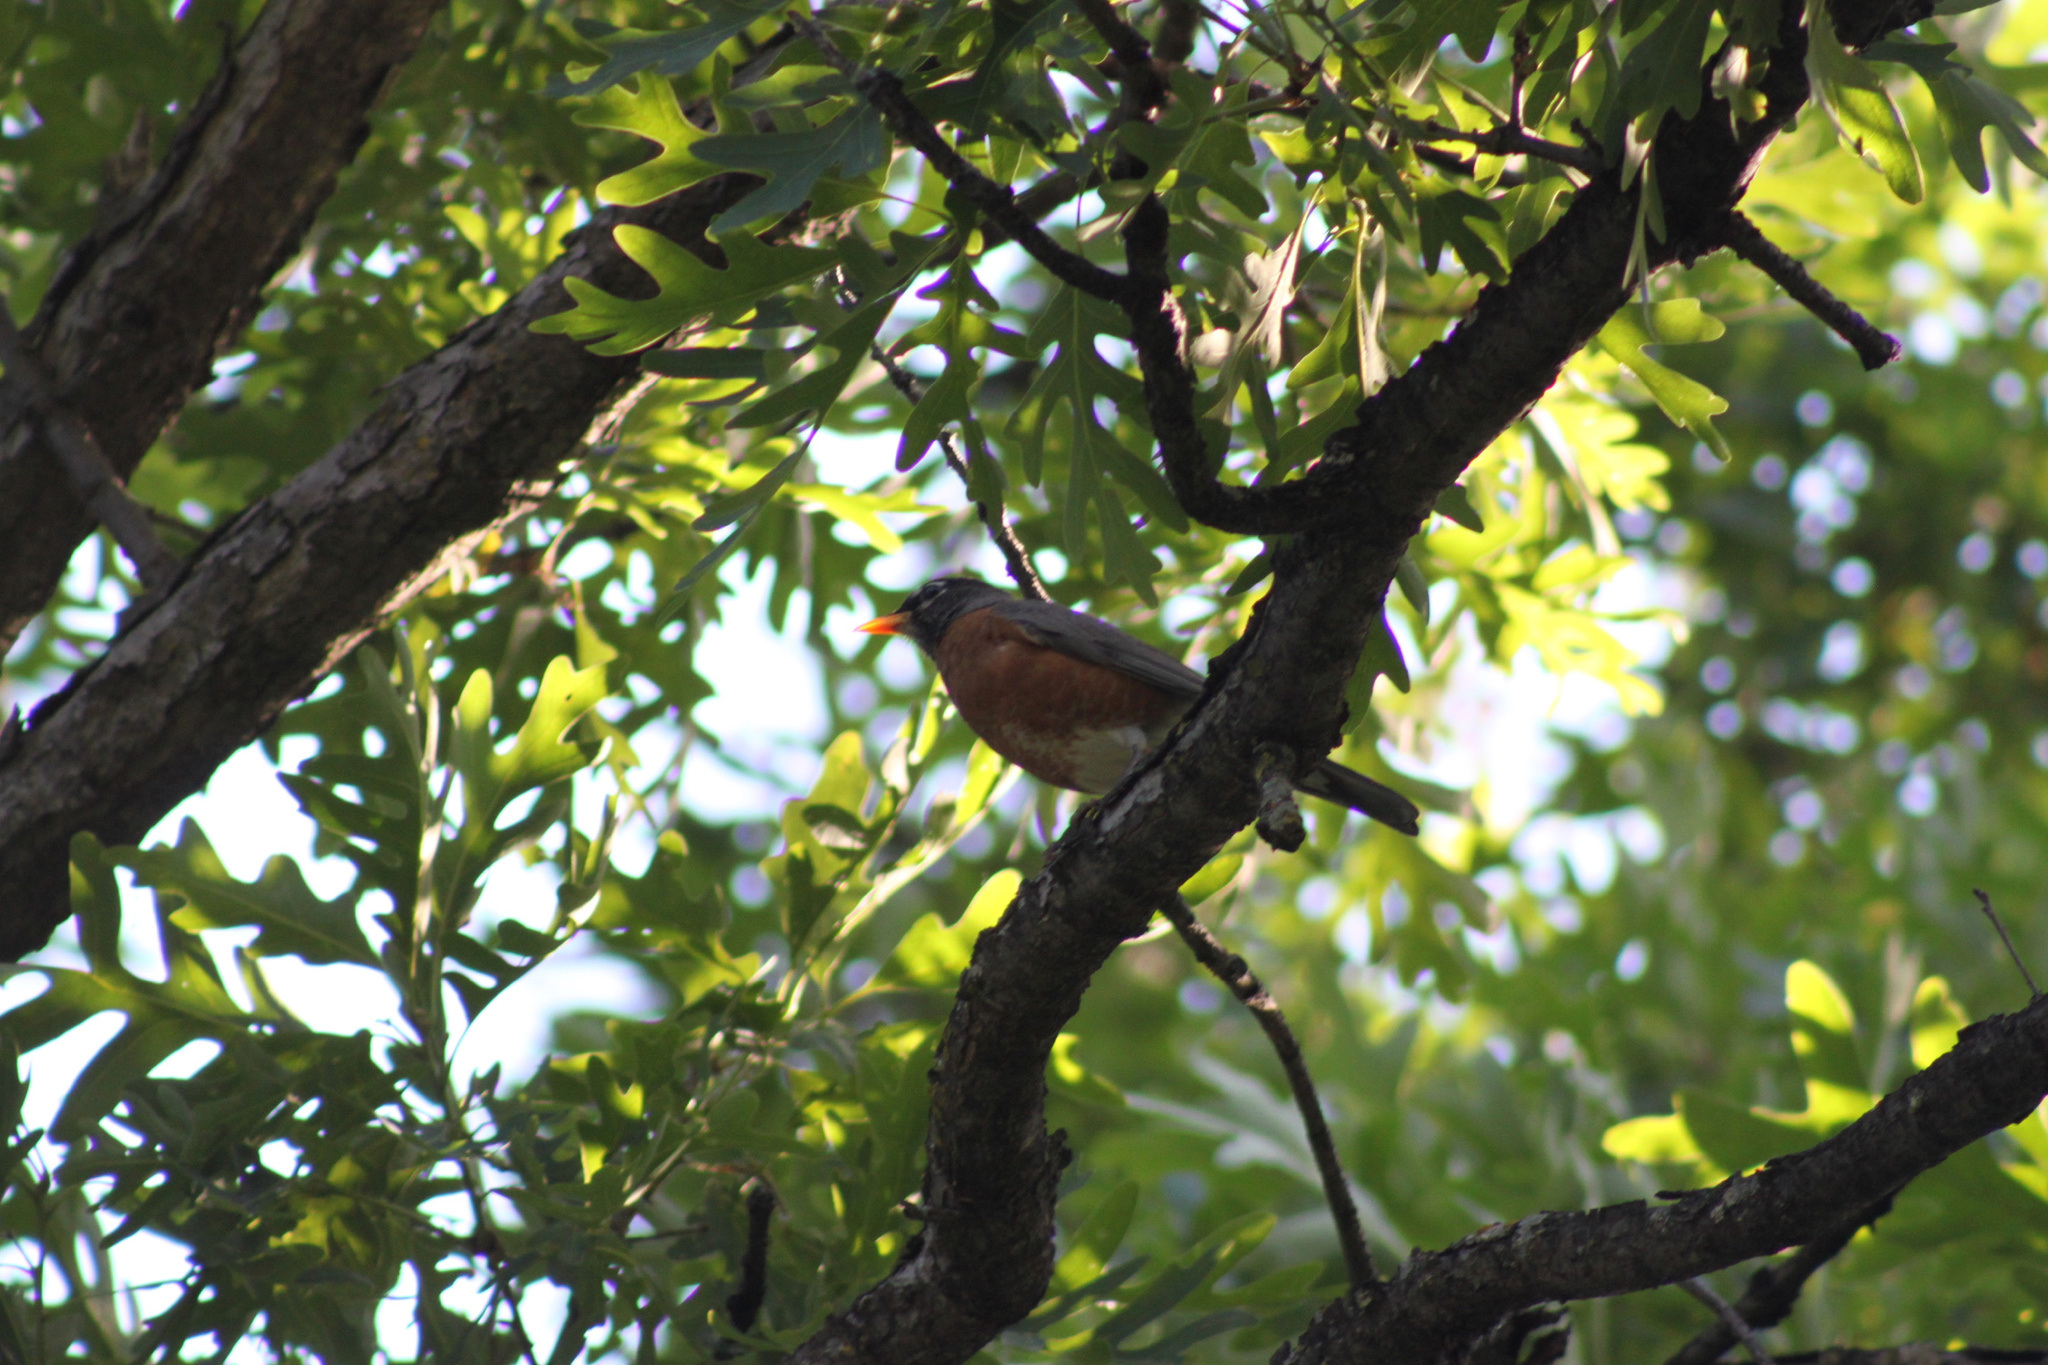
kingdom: Animalia
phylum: Chordata
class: Aves
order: Passeriformes
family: Turdidae
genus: Turdus
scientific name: Turdus migratorius
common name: American robin
